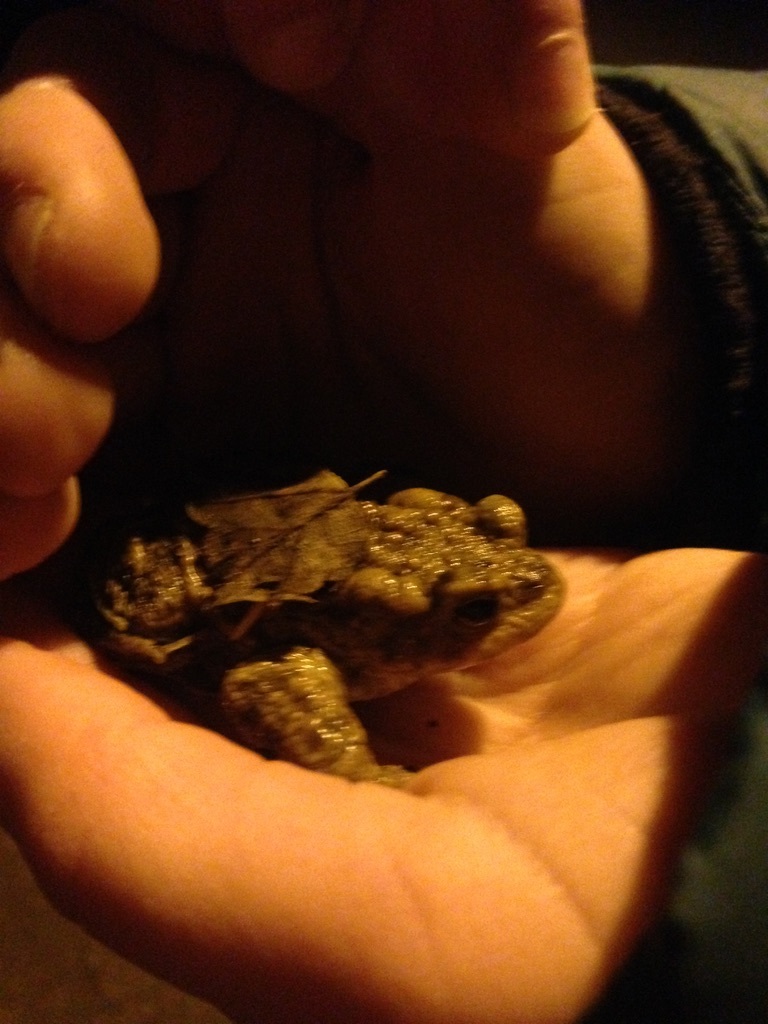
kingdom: Animalia
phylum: Chordata
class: Amphibia
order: Anura
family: Bufonidae
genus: Bufo
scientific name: Bufo bufo
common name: Common toad
